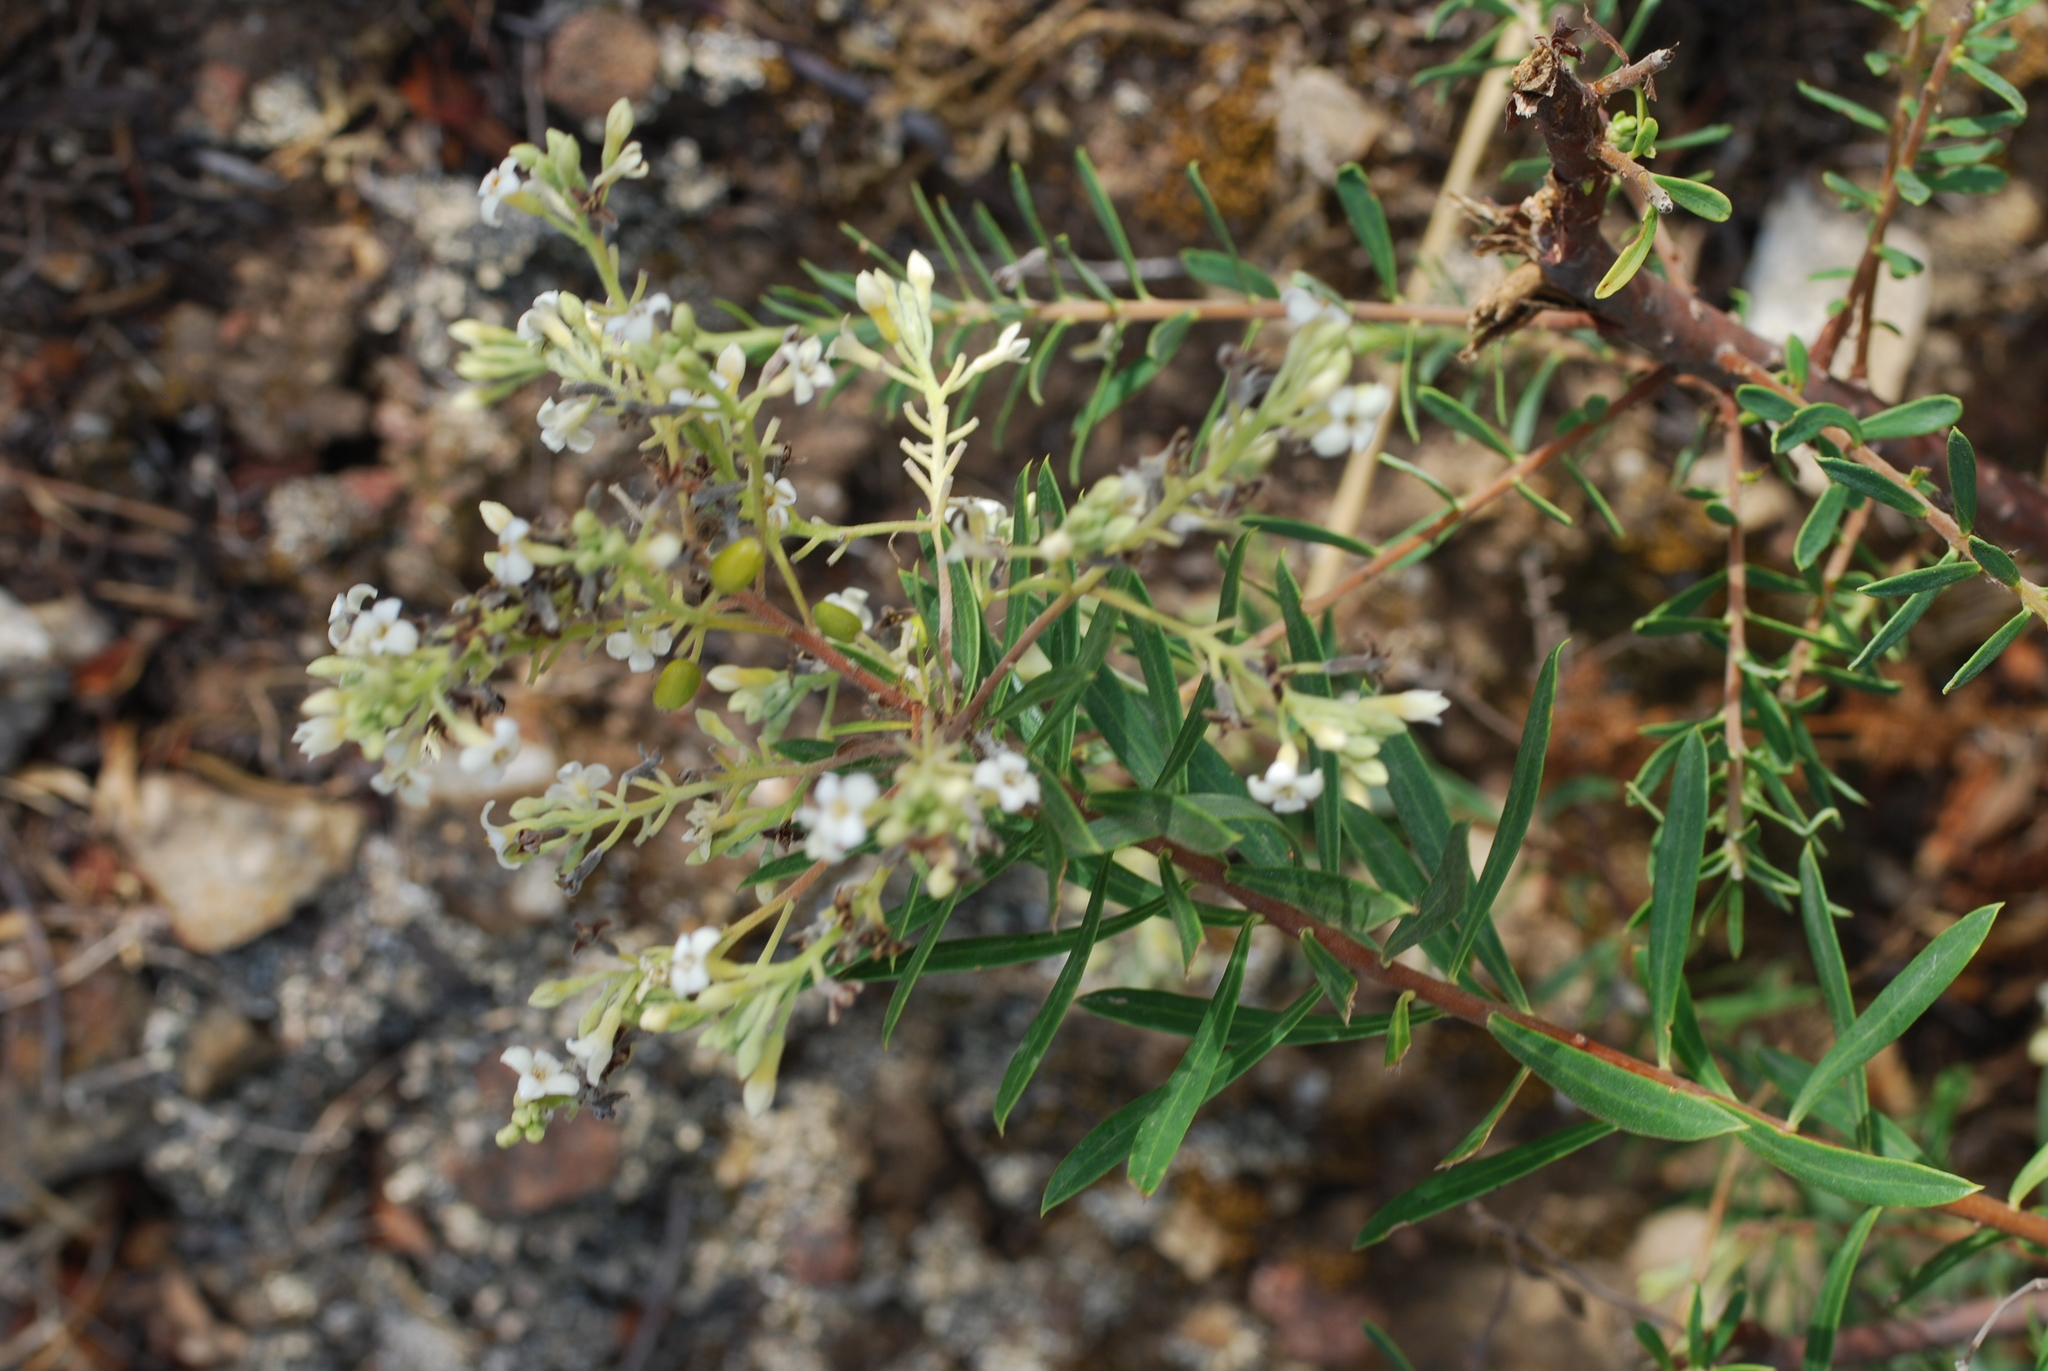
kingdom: Plantae
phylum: Tracheophyta
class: Magnoliopsida
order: Malvales
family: Thymelaeaceae
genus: Daphne
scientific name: Daphne gnidium
